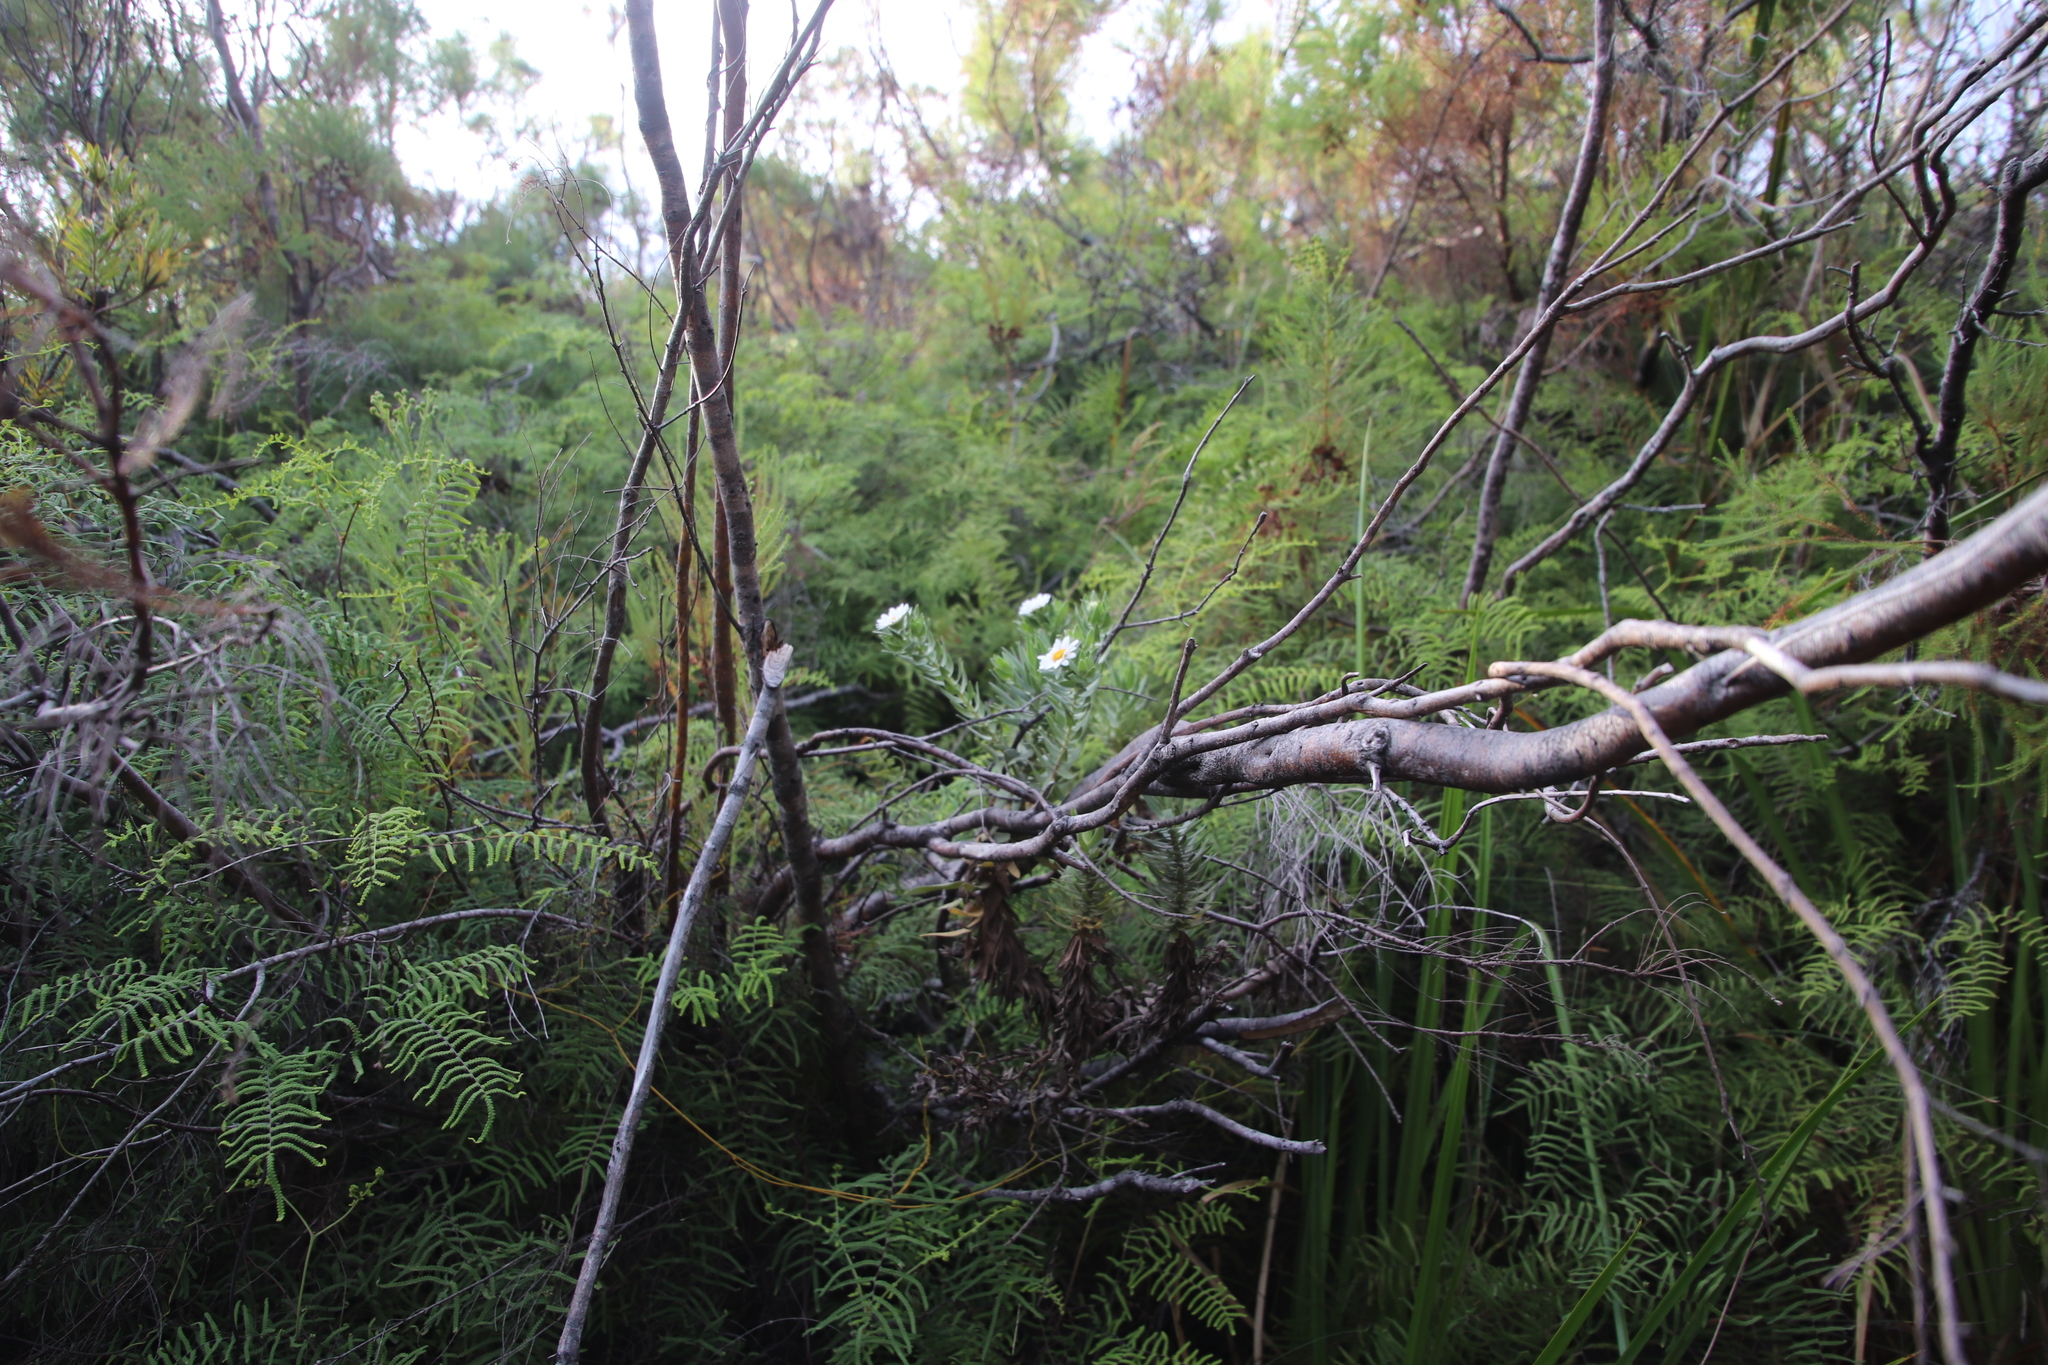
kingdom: Plantae
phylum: Tracheophyta
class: Magnoliopsida
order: Asterales
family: Asteraceae
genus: Osmitopsis
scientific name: Osmitopsis asteriscoides
